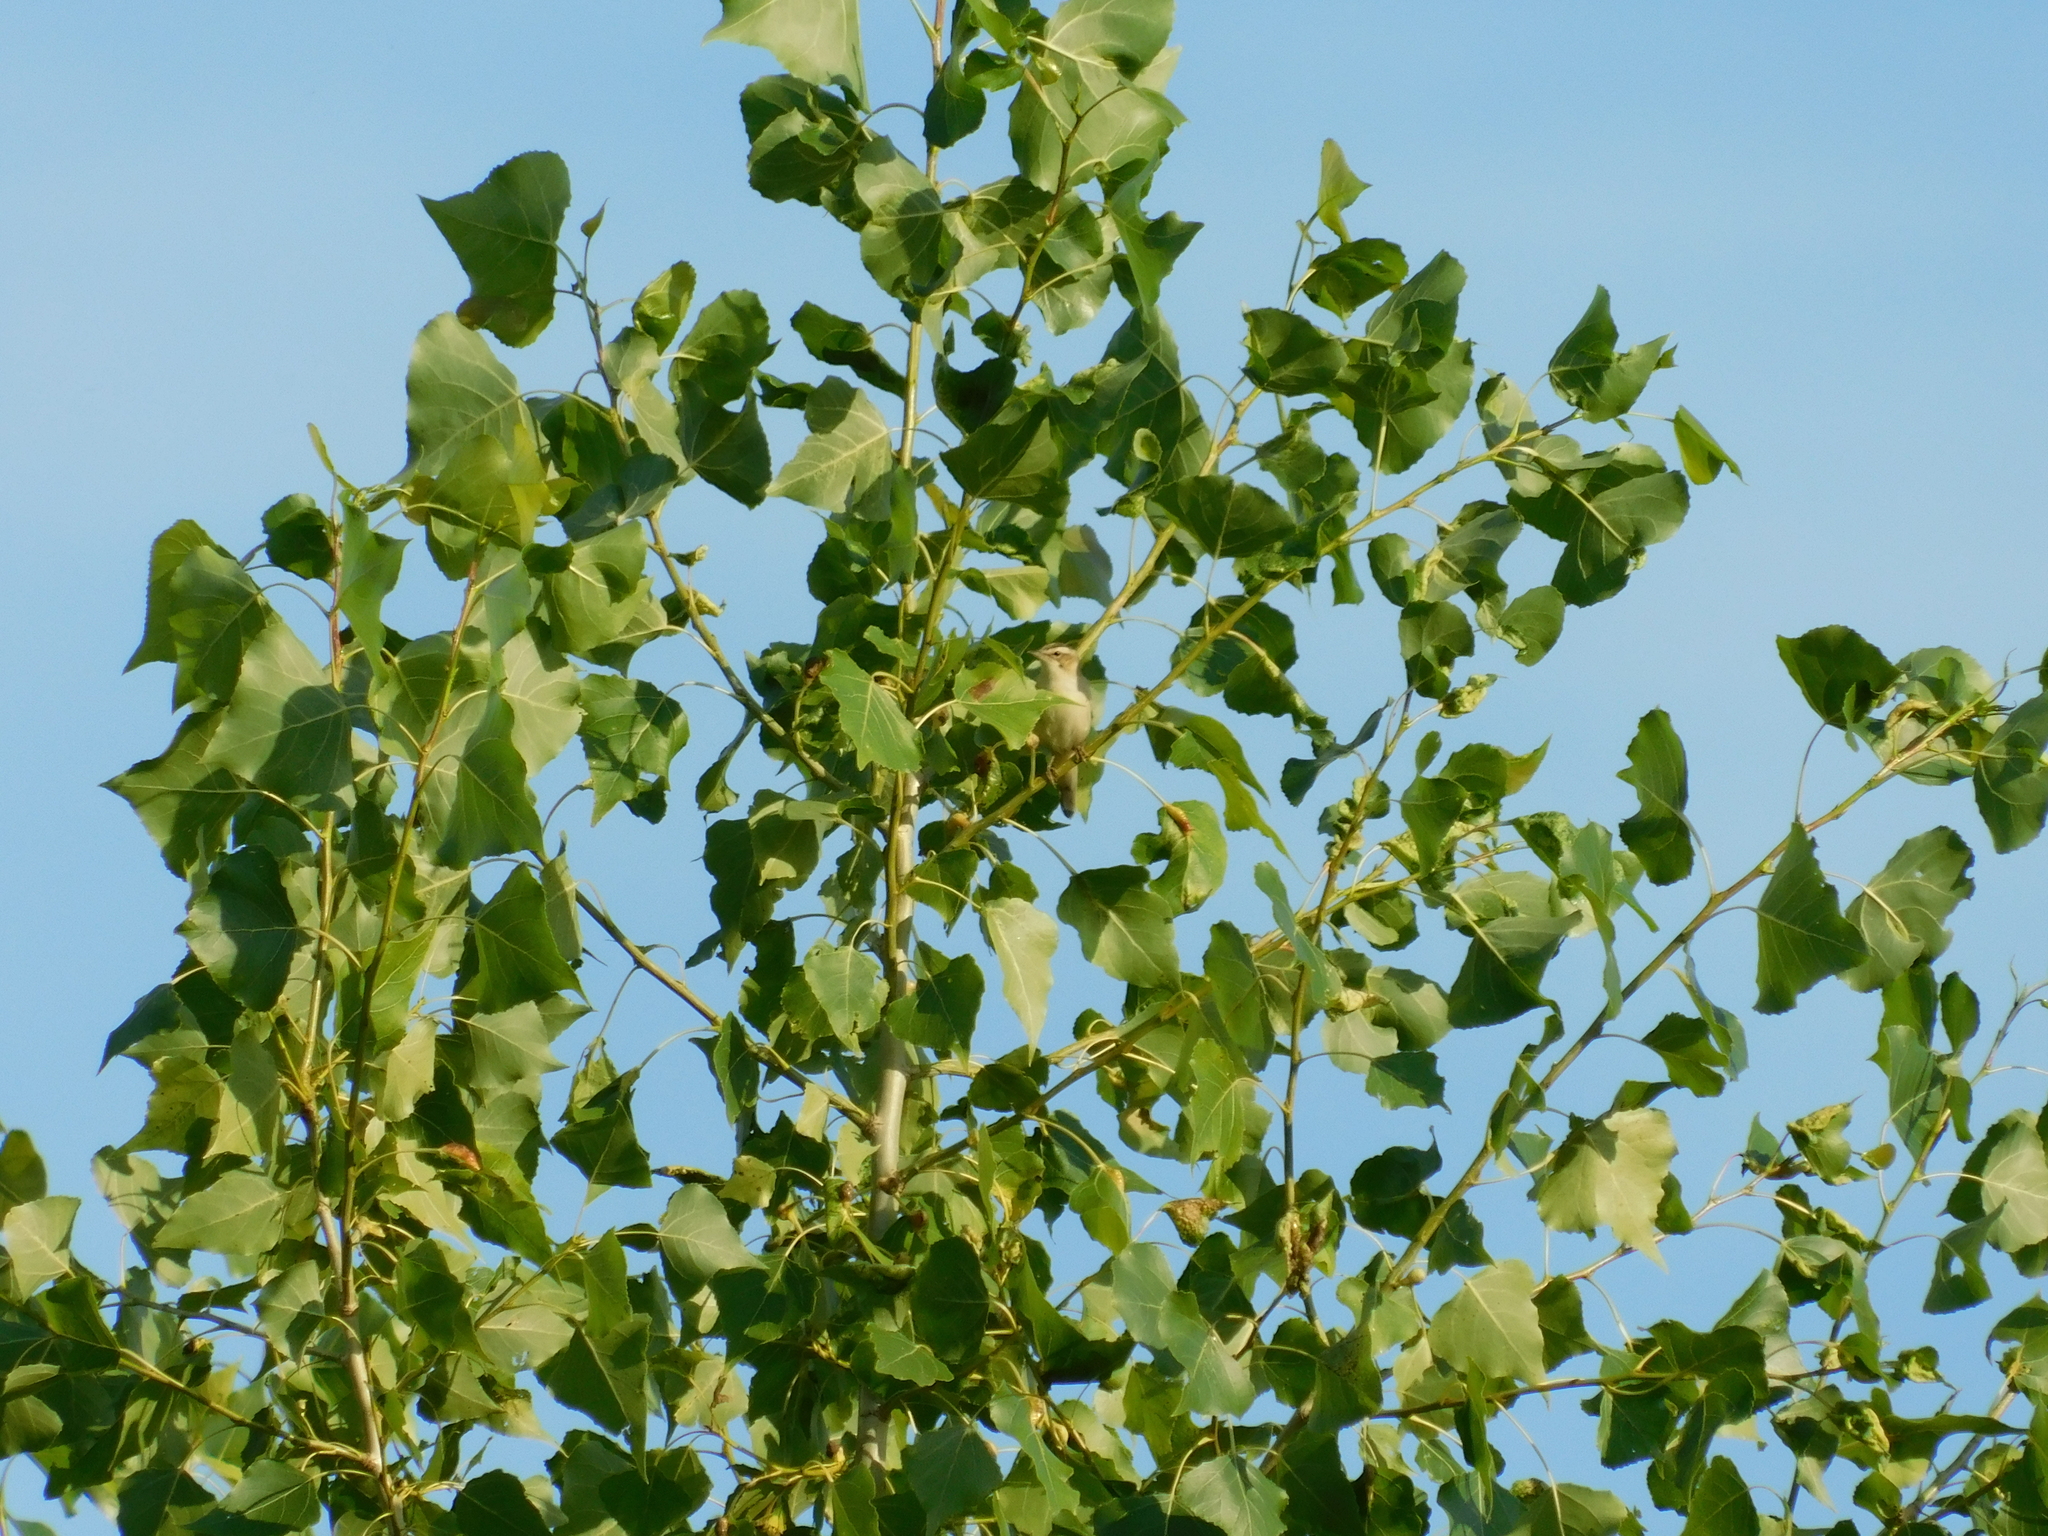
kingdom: Animalia
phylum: Chordata
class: Aves
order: Passeriformes
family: Acrocephalidae
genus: Acrocephalus
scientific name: Acrocephalus schoenobaenus
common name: Sedge warbler
